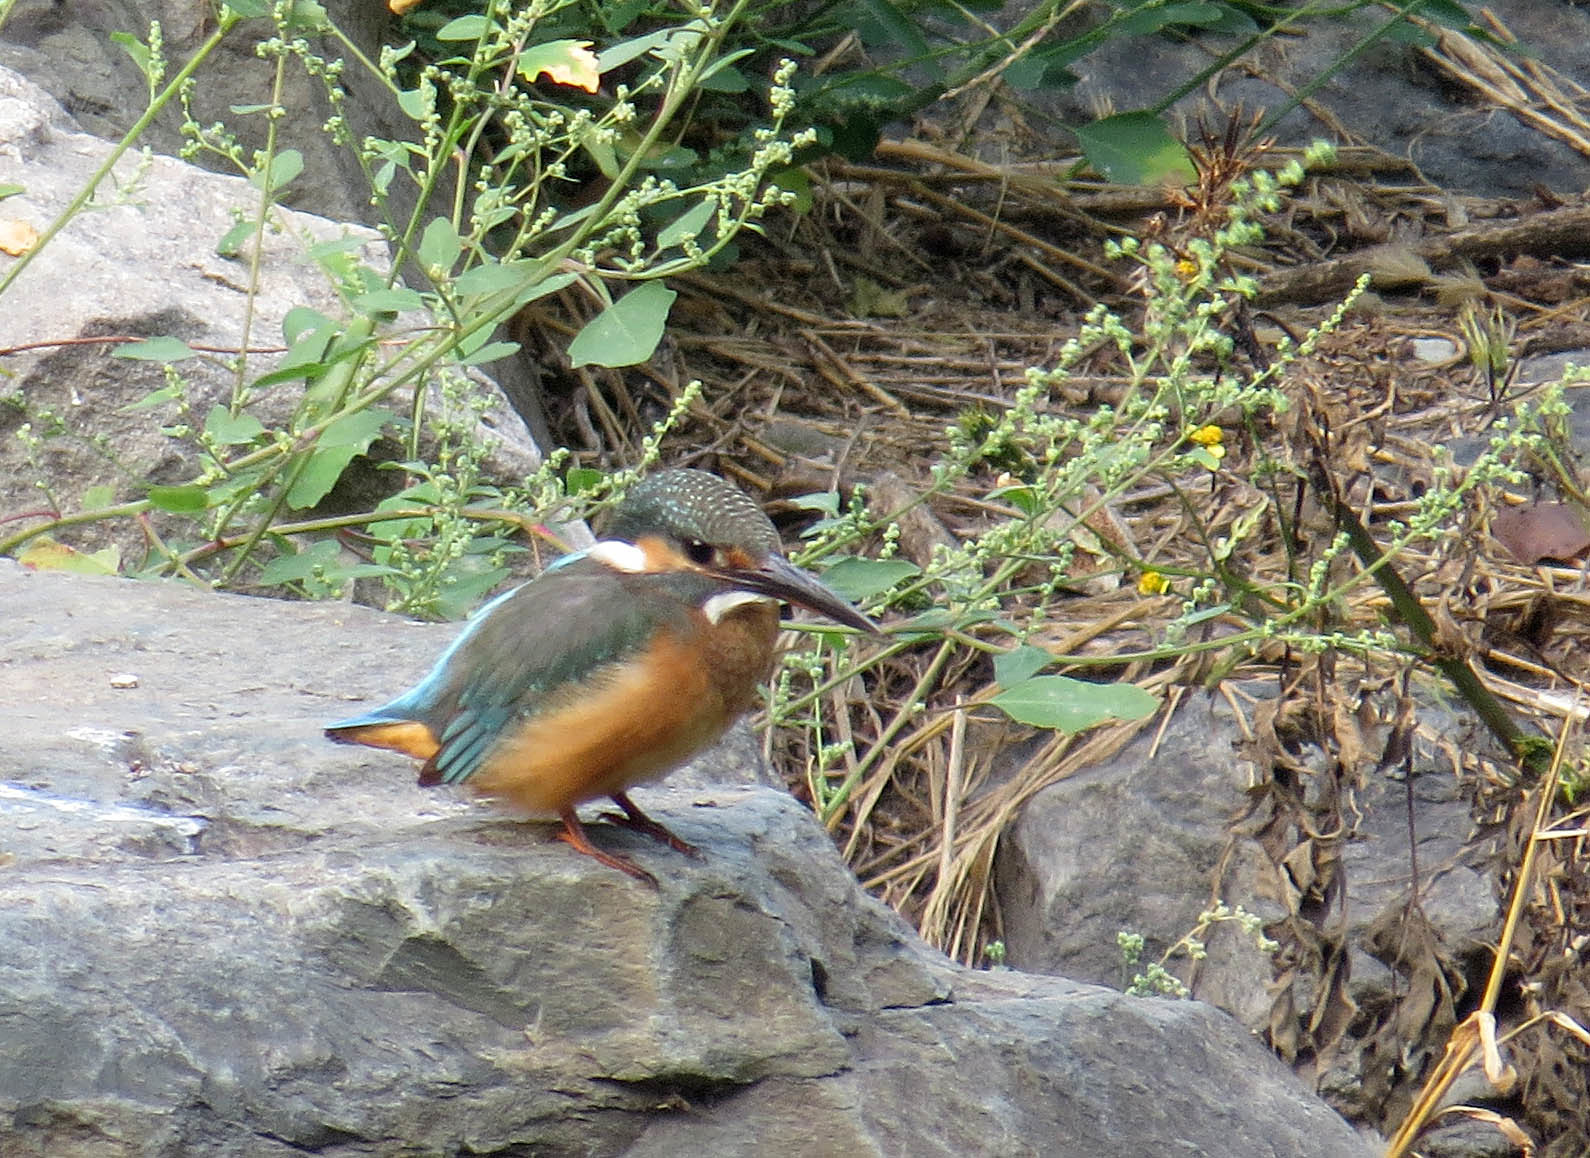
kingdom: Animalia
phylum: Chordata
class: Aves
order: Coraciiformes
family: Alcedinidae
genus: Alcedo
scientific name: Alcedo atthis
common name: Common kingfisher
